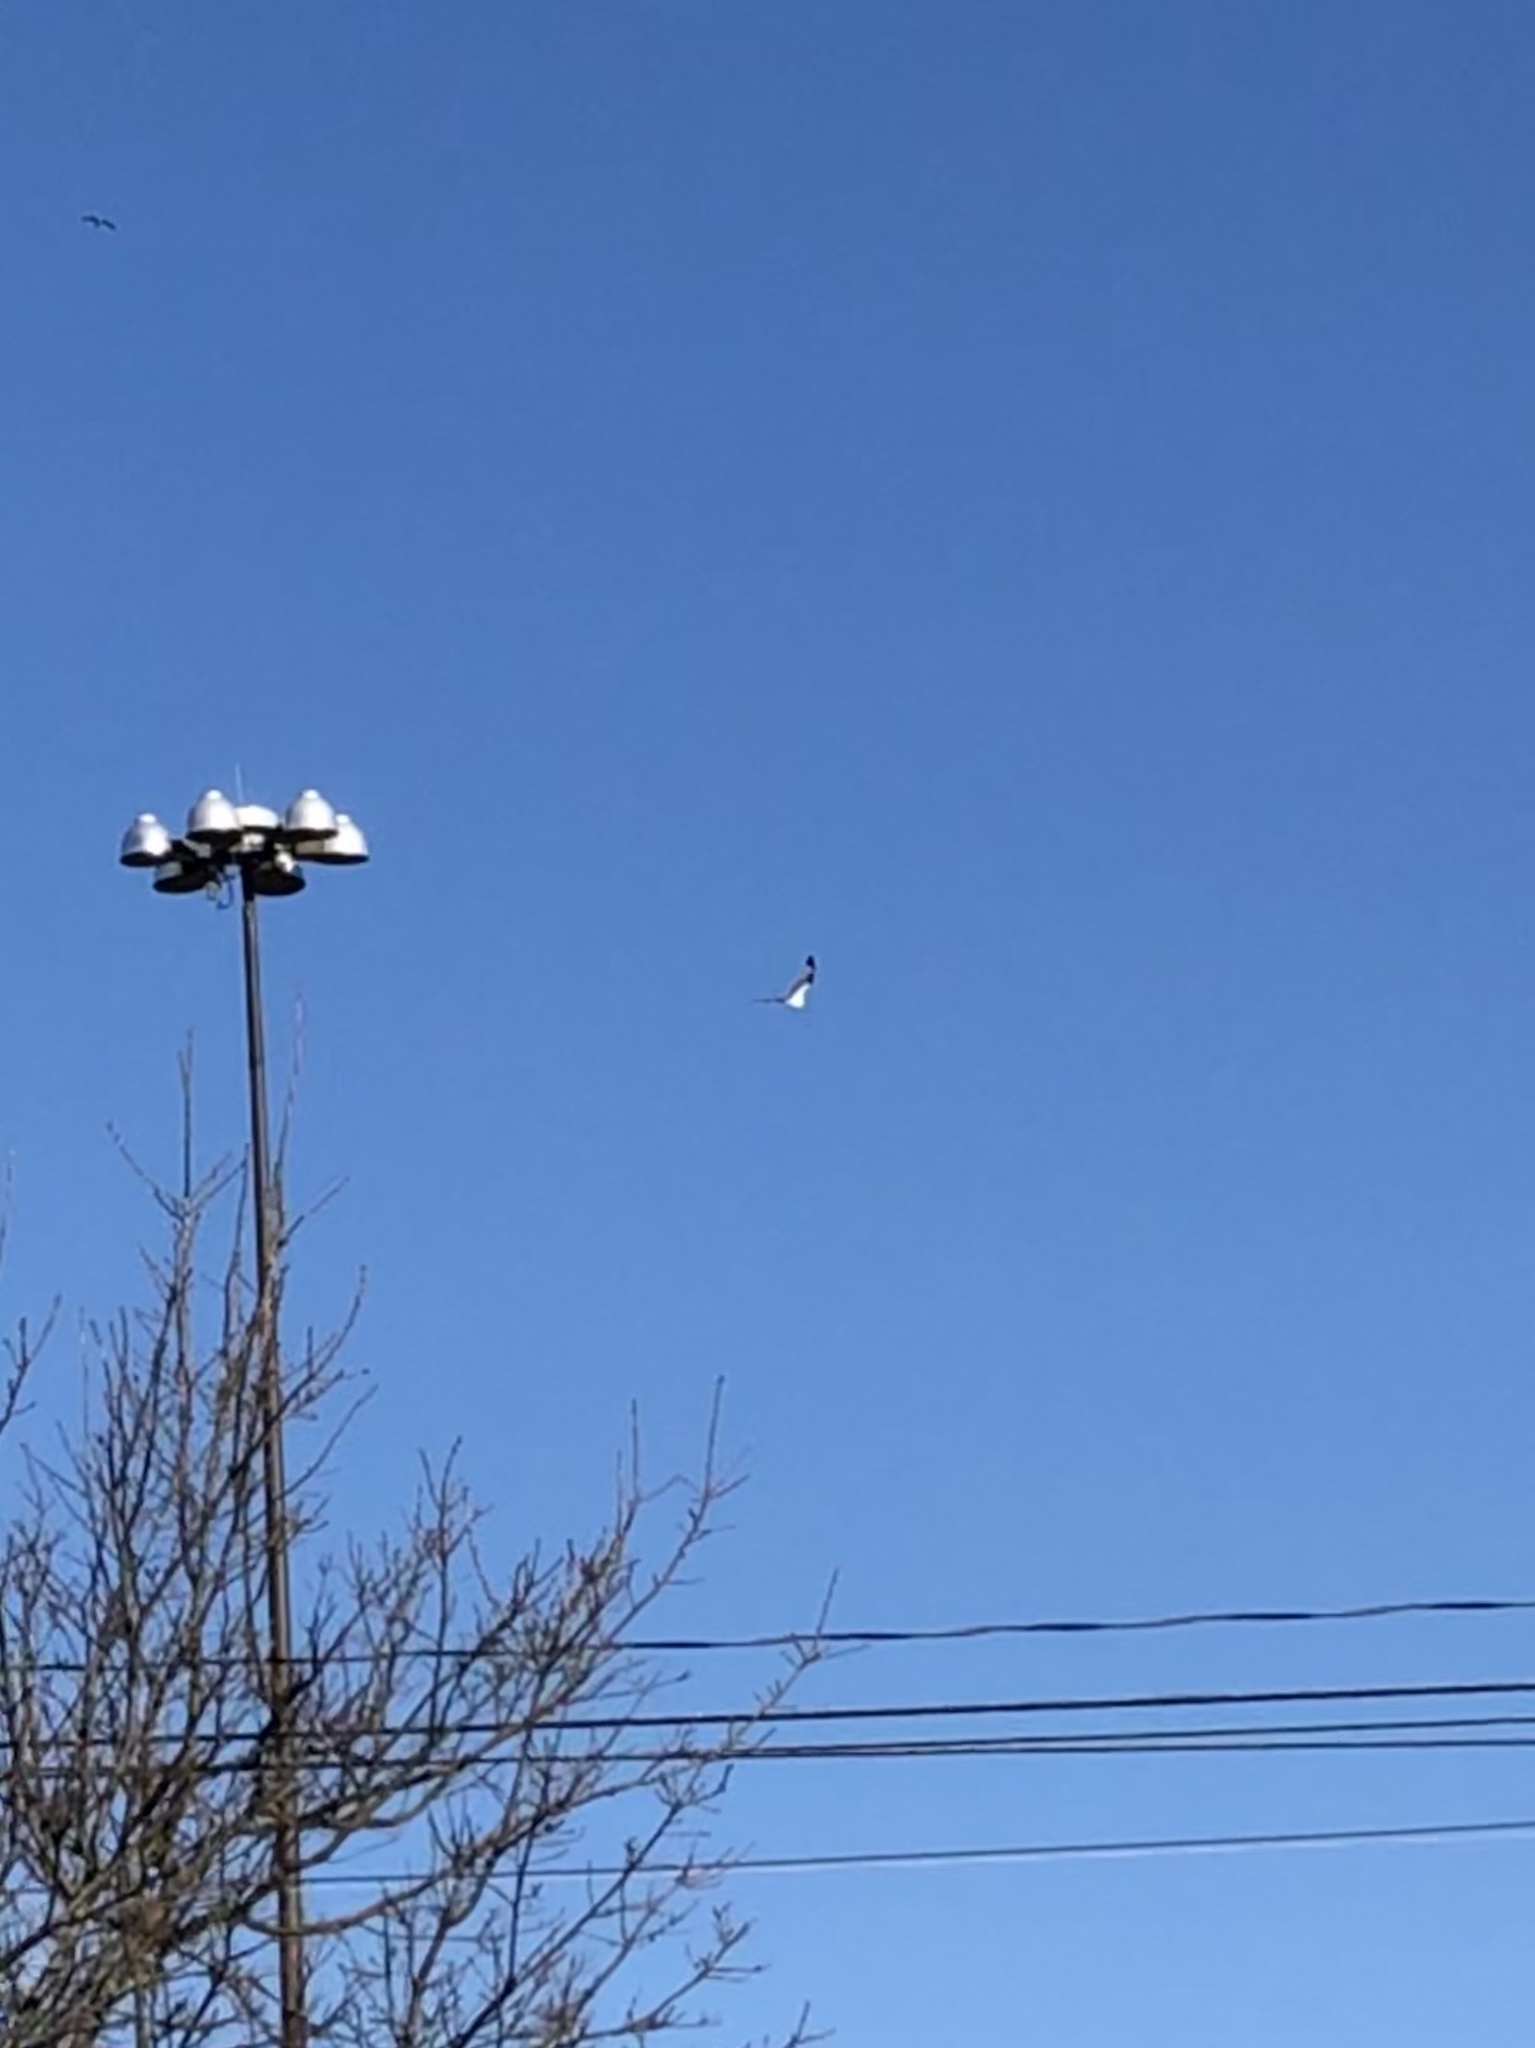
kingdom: Animalia
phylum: Chordata
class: Aves
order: Charadriiformes
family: Laridae
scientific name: Laridae
